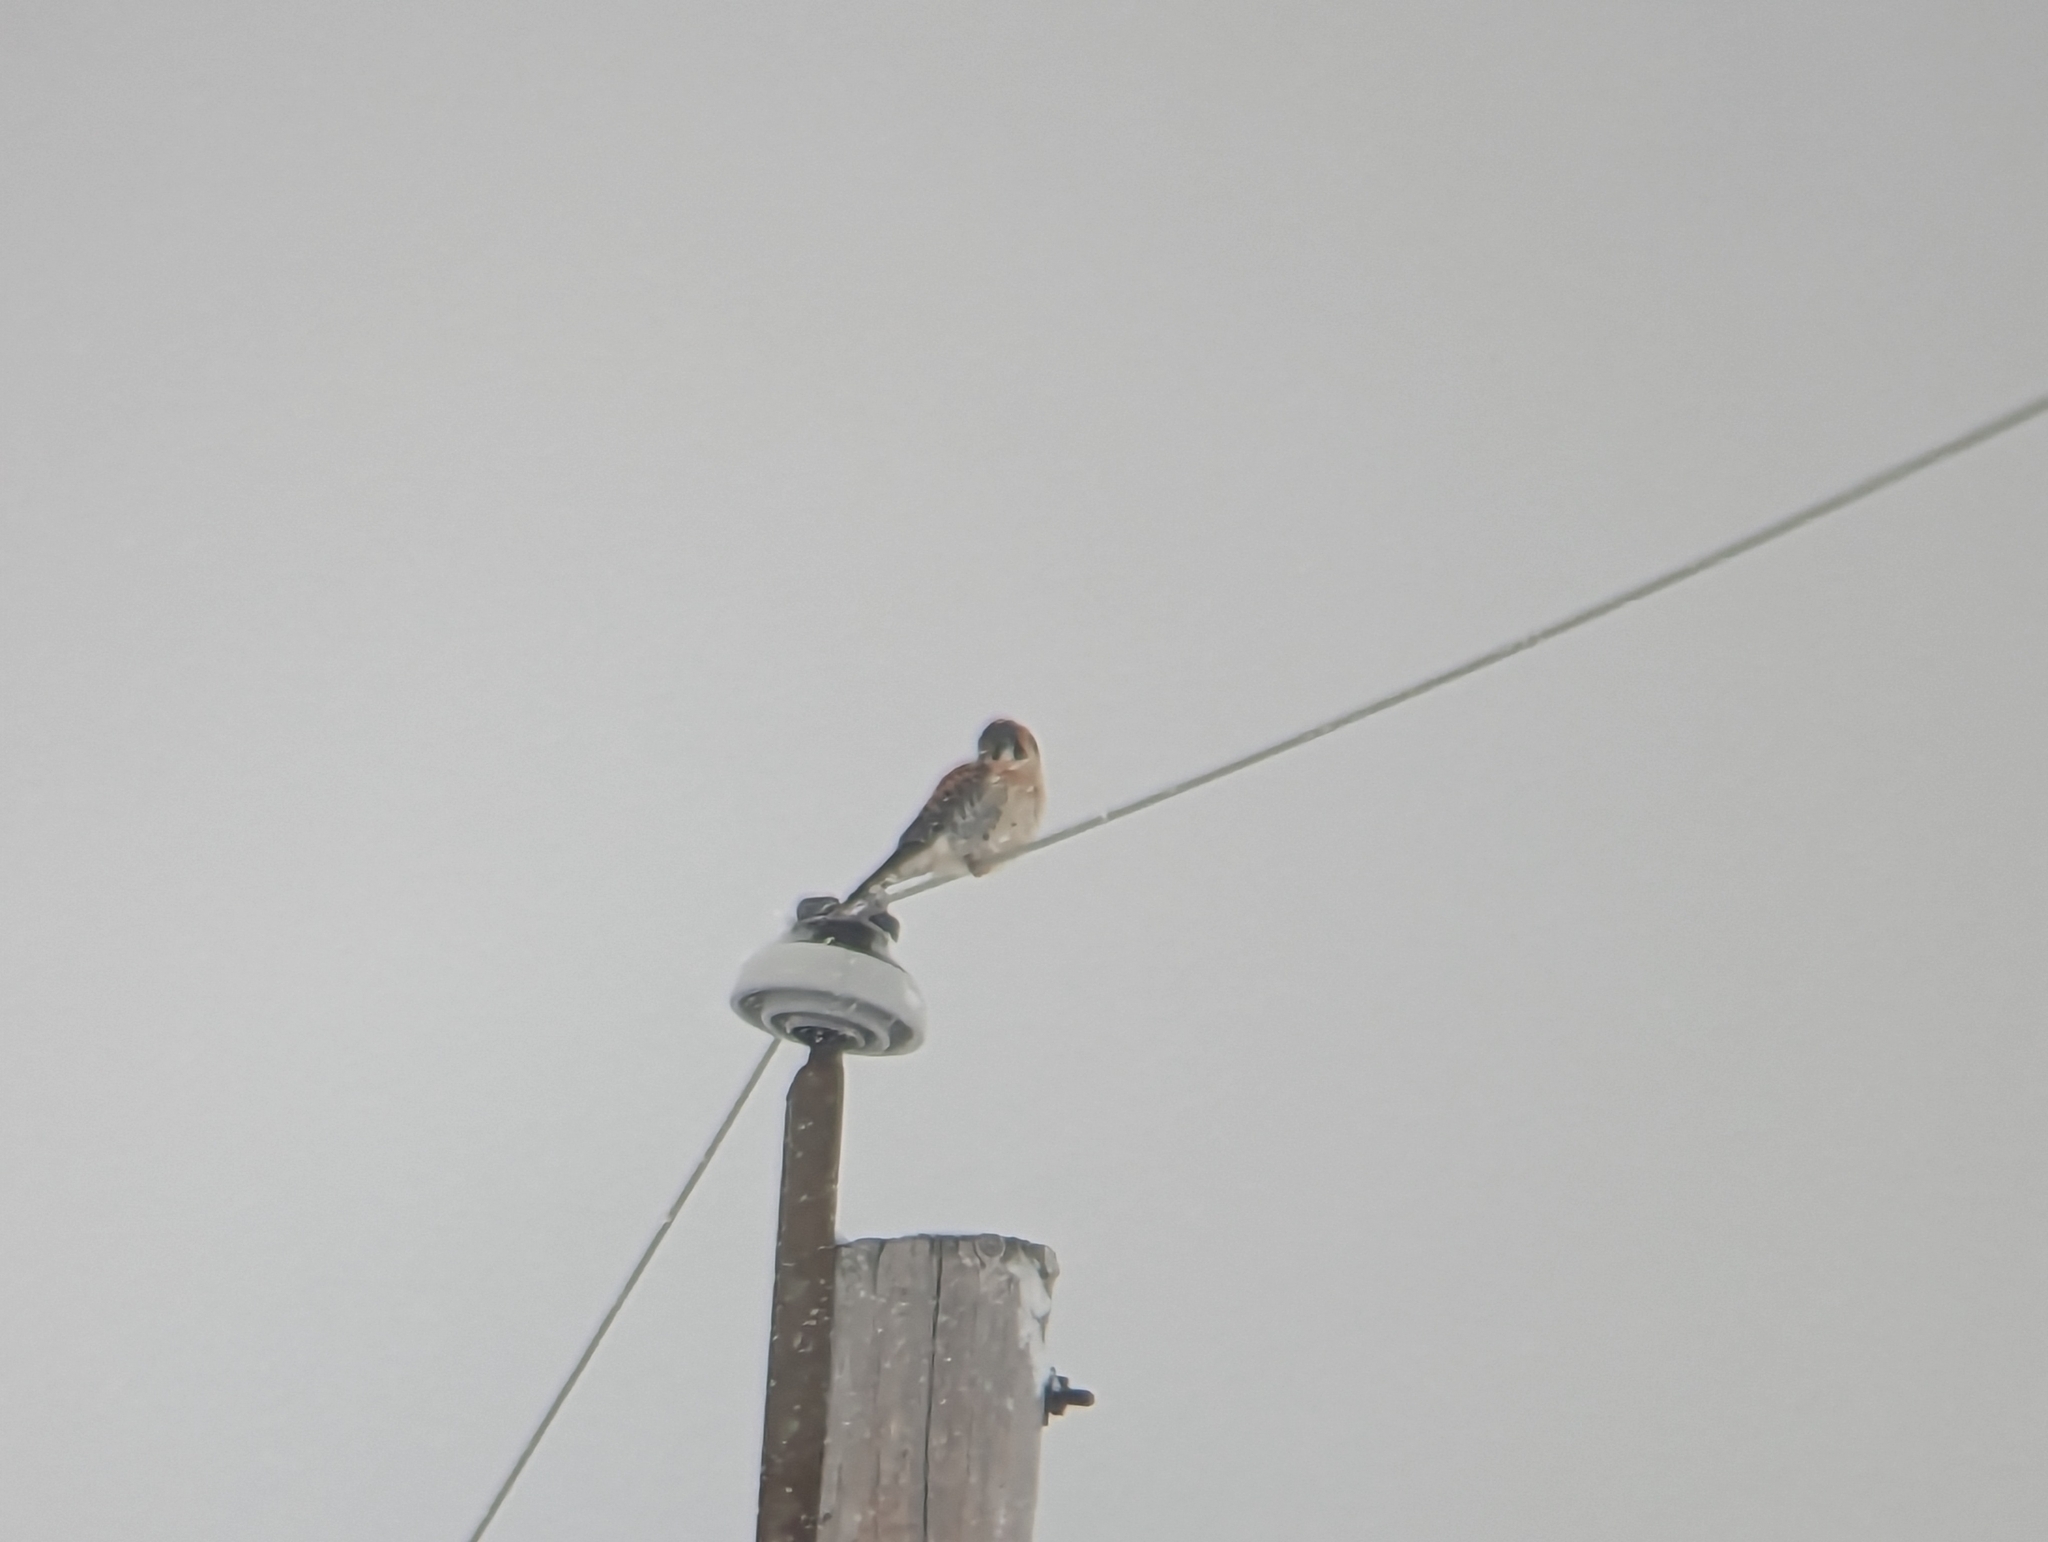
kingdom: Animalia
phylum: Chordata
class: Aves
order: Falconiformes
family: Falconidae
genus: Falco
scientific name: Falco sparverius
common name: American kestrel
